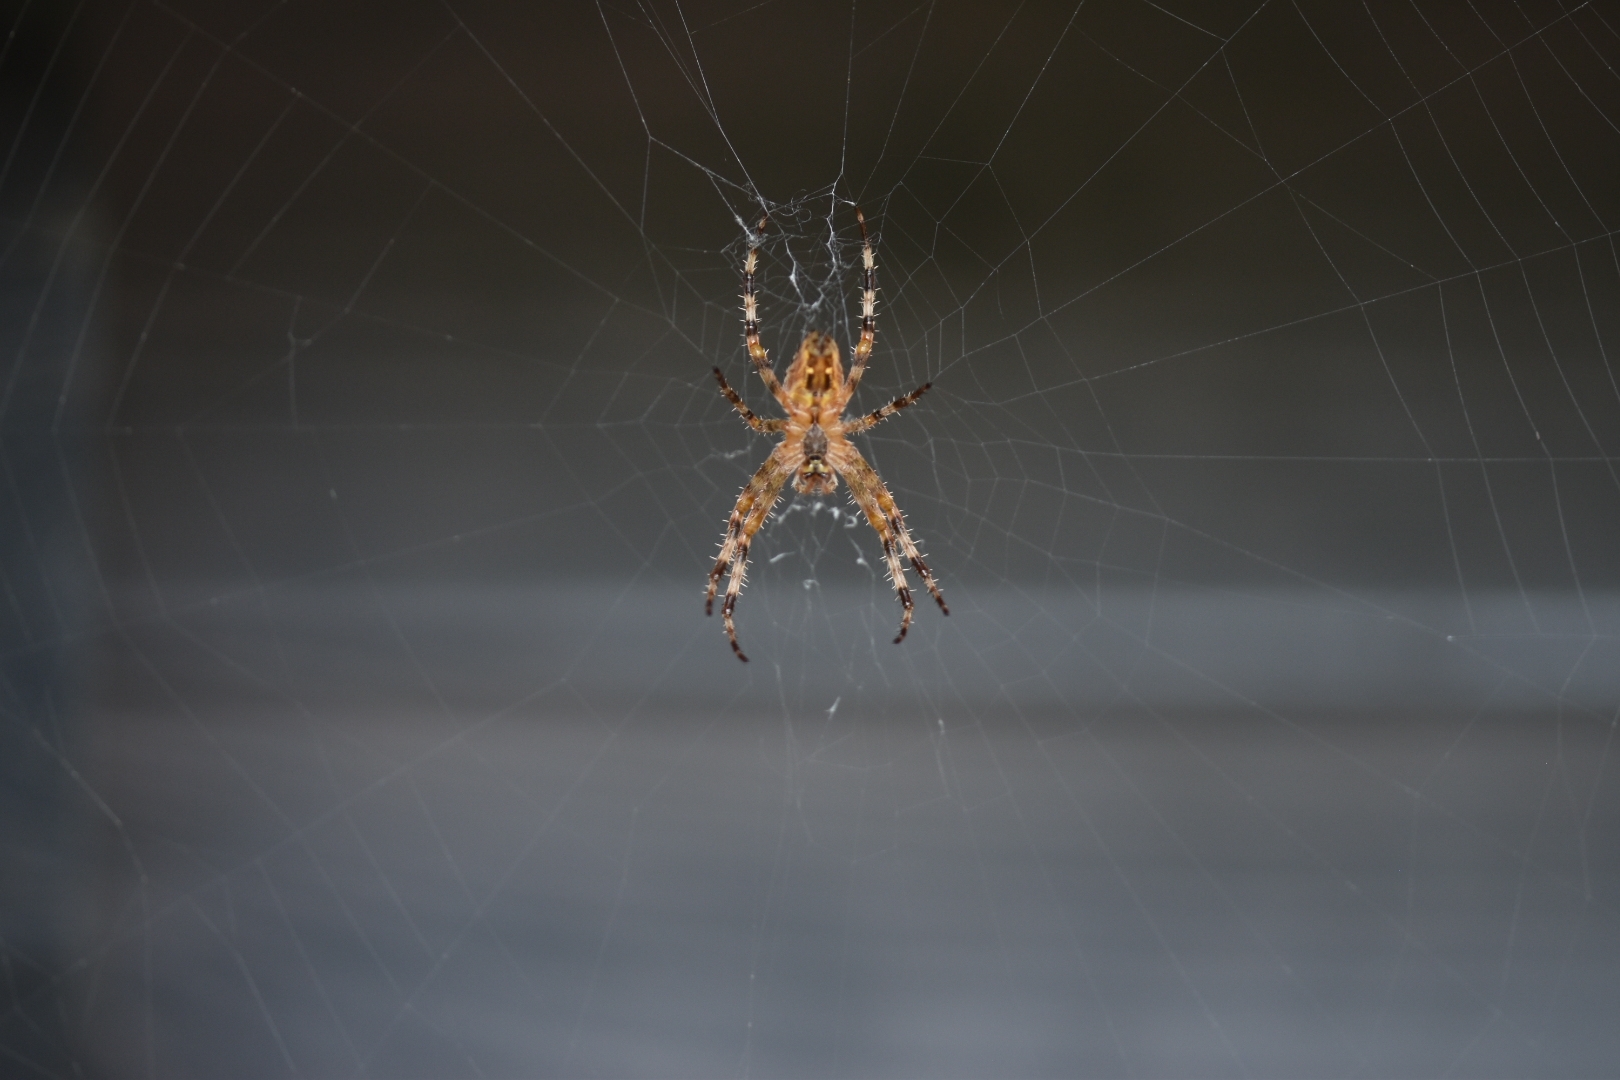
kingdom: Animalia
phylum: Arthropoda
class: Arachnida
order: Araneae
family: Araneidae
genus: Araneus
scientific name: Araneus diadematus
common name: Cross orbweaver
